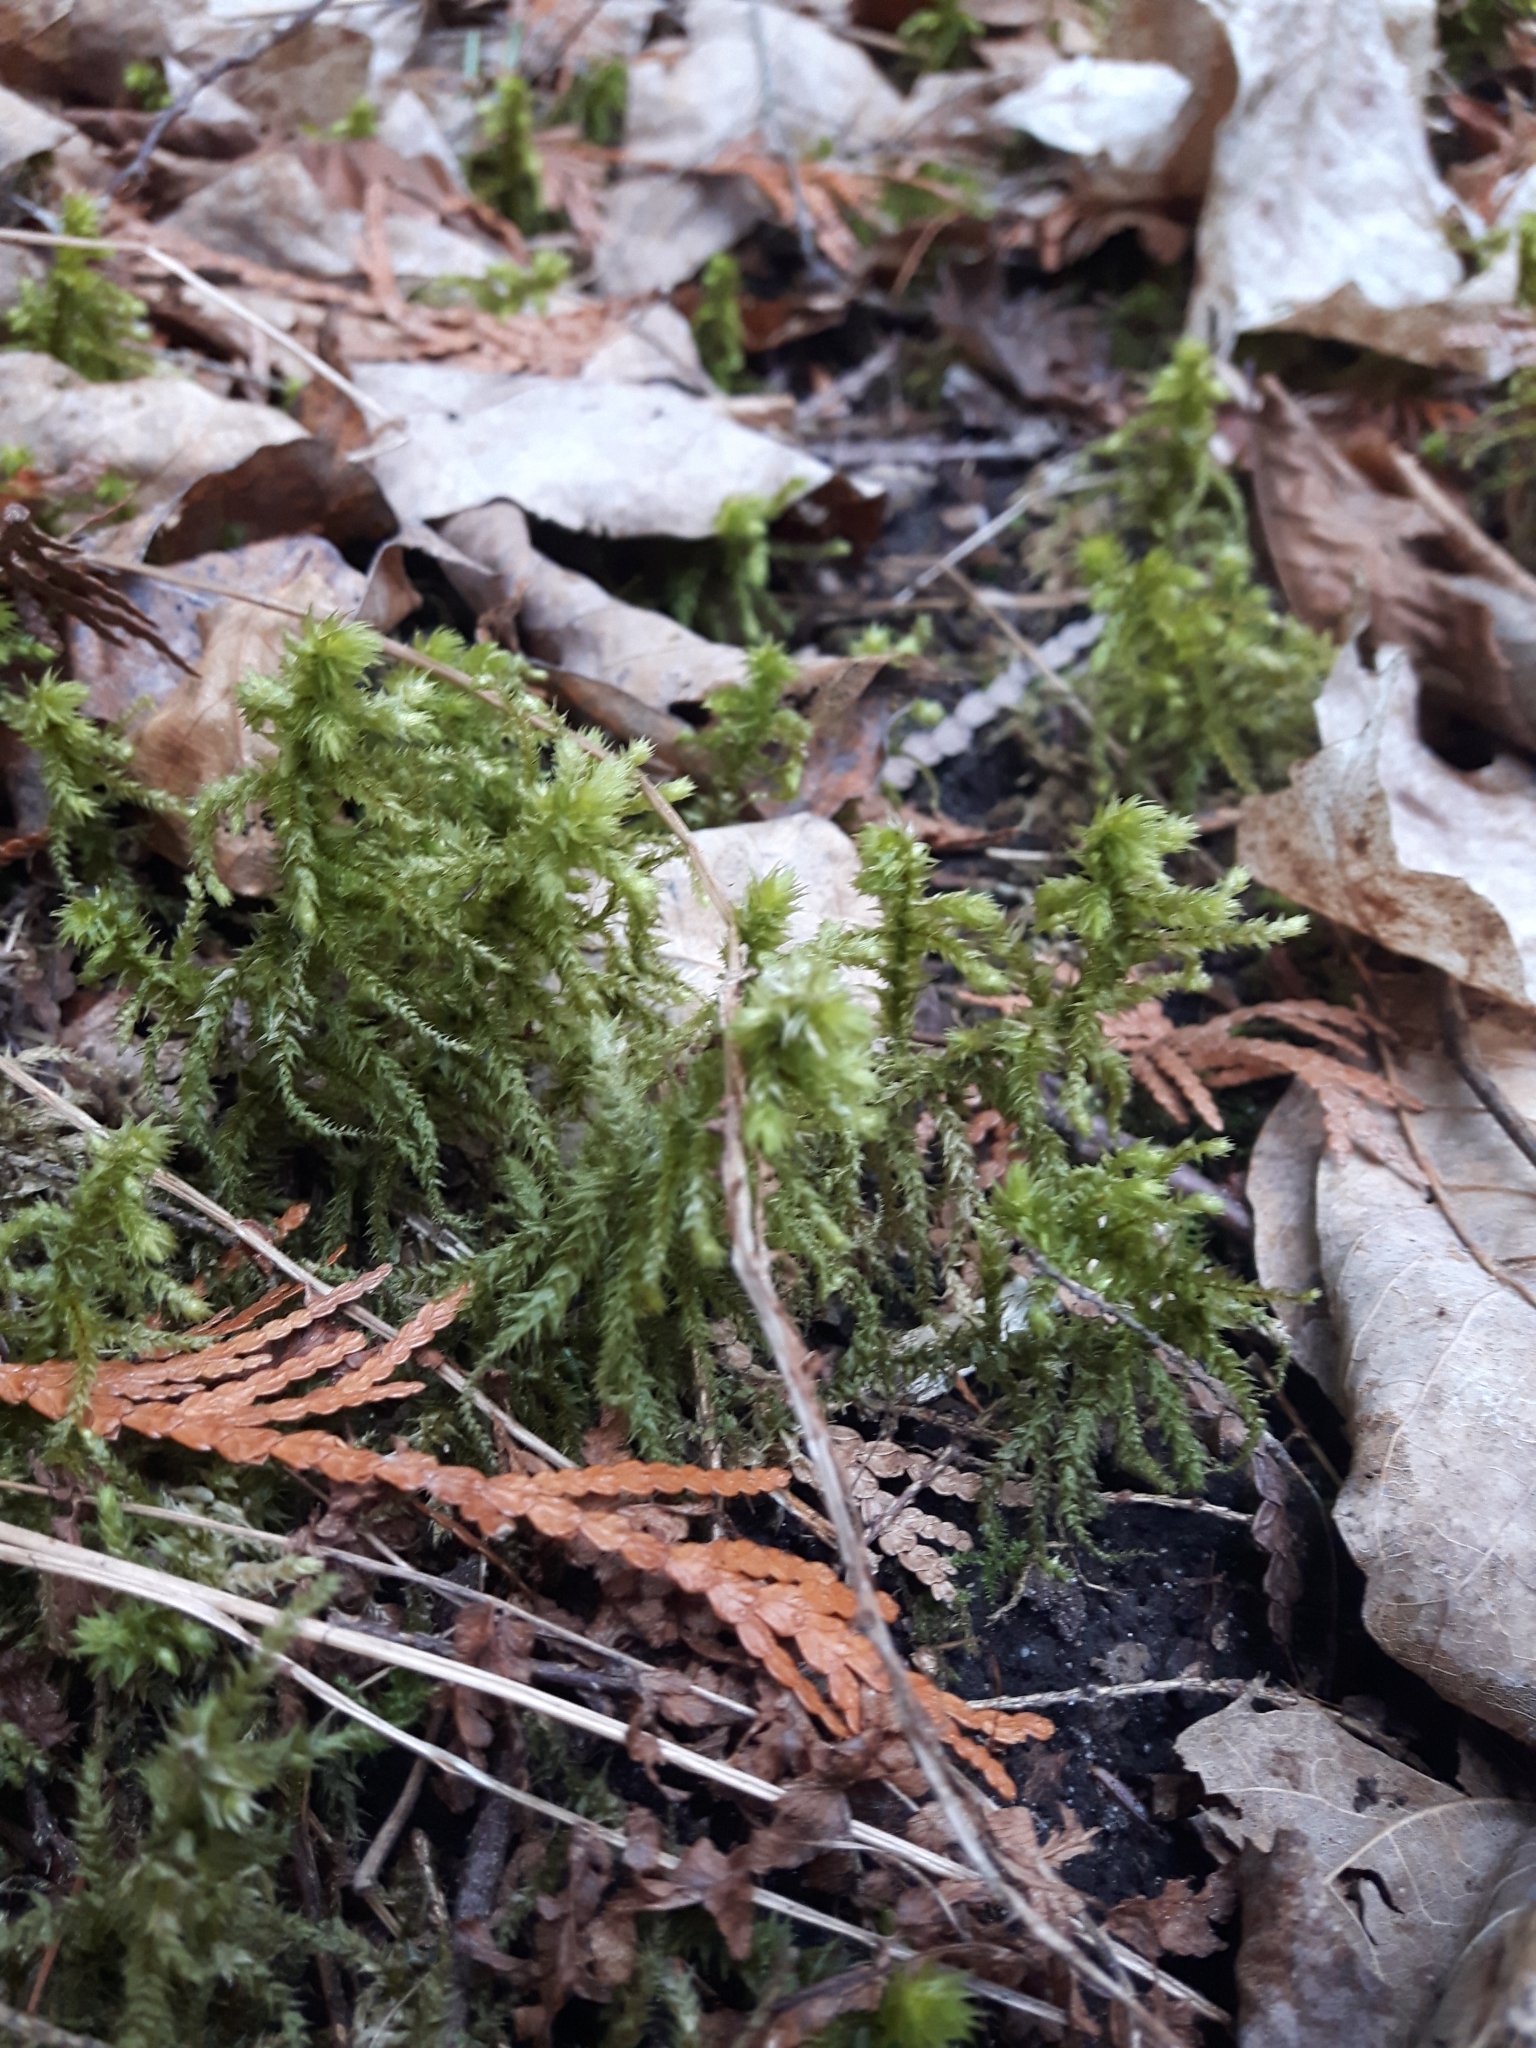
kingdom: Plantae
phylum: Bryophyta
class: Bryopsida
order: Hypnales
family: Hylocomiaceae
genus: Hylocomiadelphus
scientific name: Hylocomiadelphus triquetrus
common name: Rough goose neck moss
